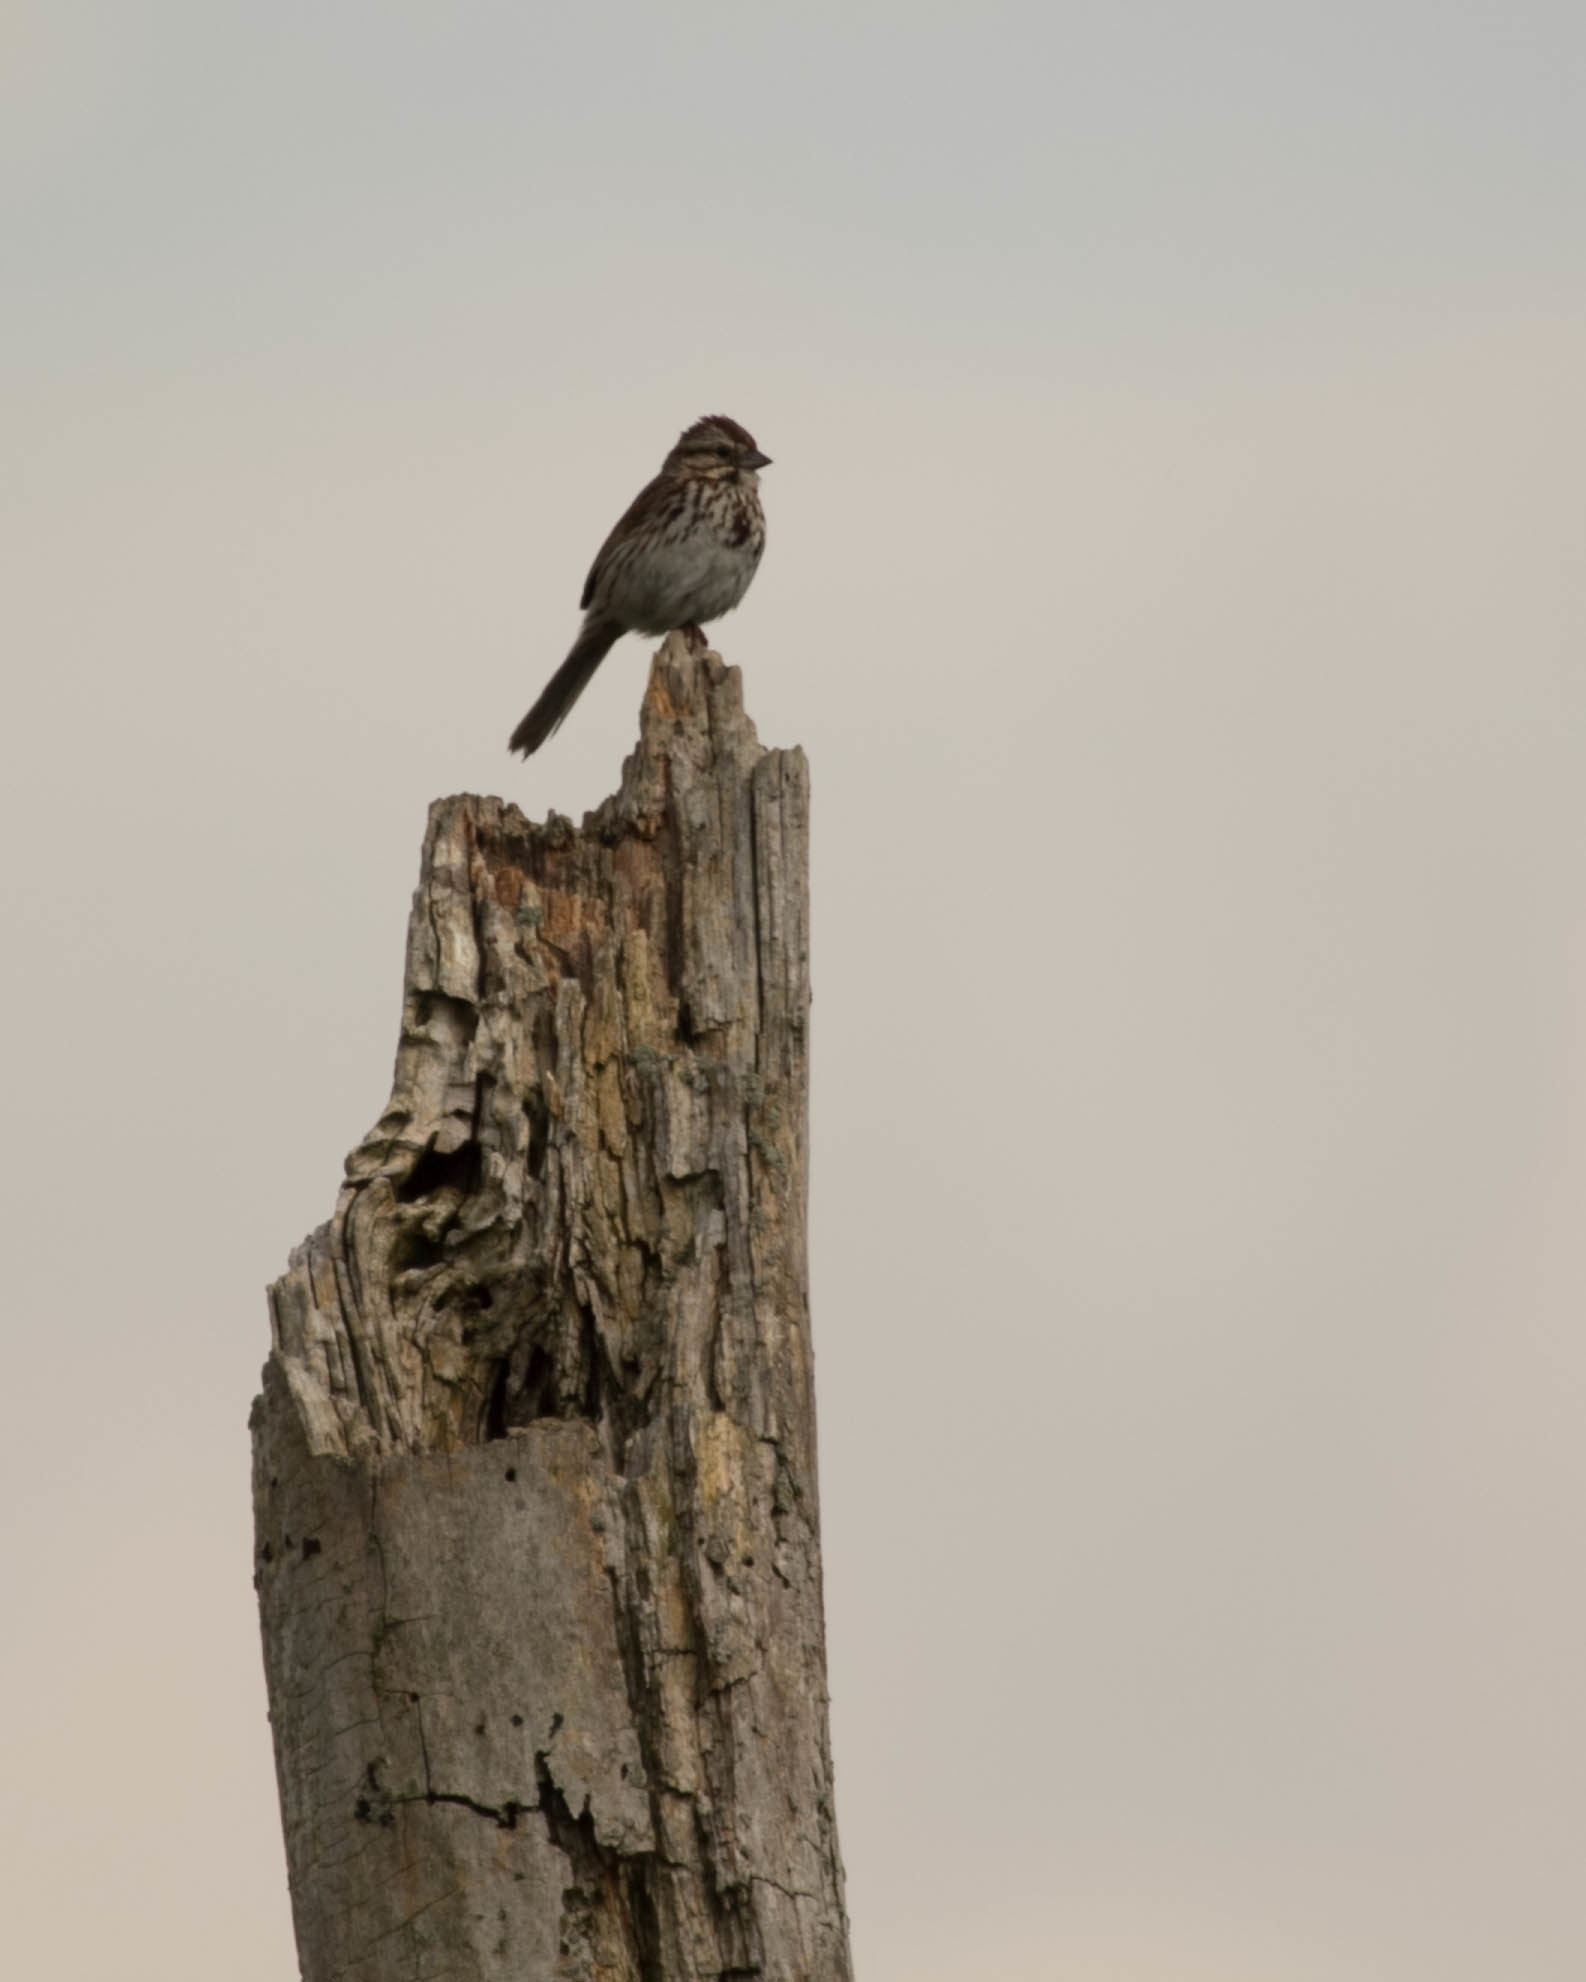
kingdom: Animalia
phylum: Chordata
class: Aves
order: Passeriformes
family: Passerellidae
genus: Melospiza
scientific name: Melospiza melodia
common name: Song sparrow
